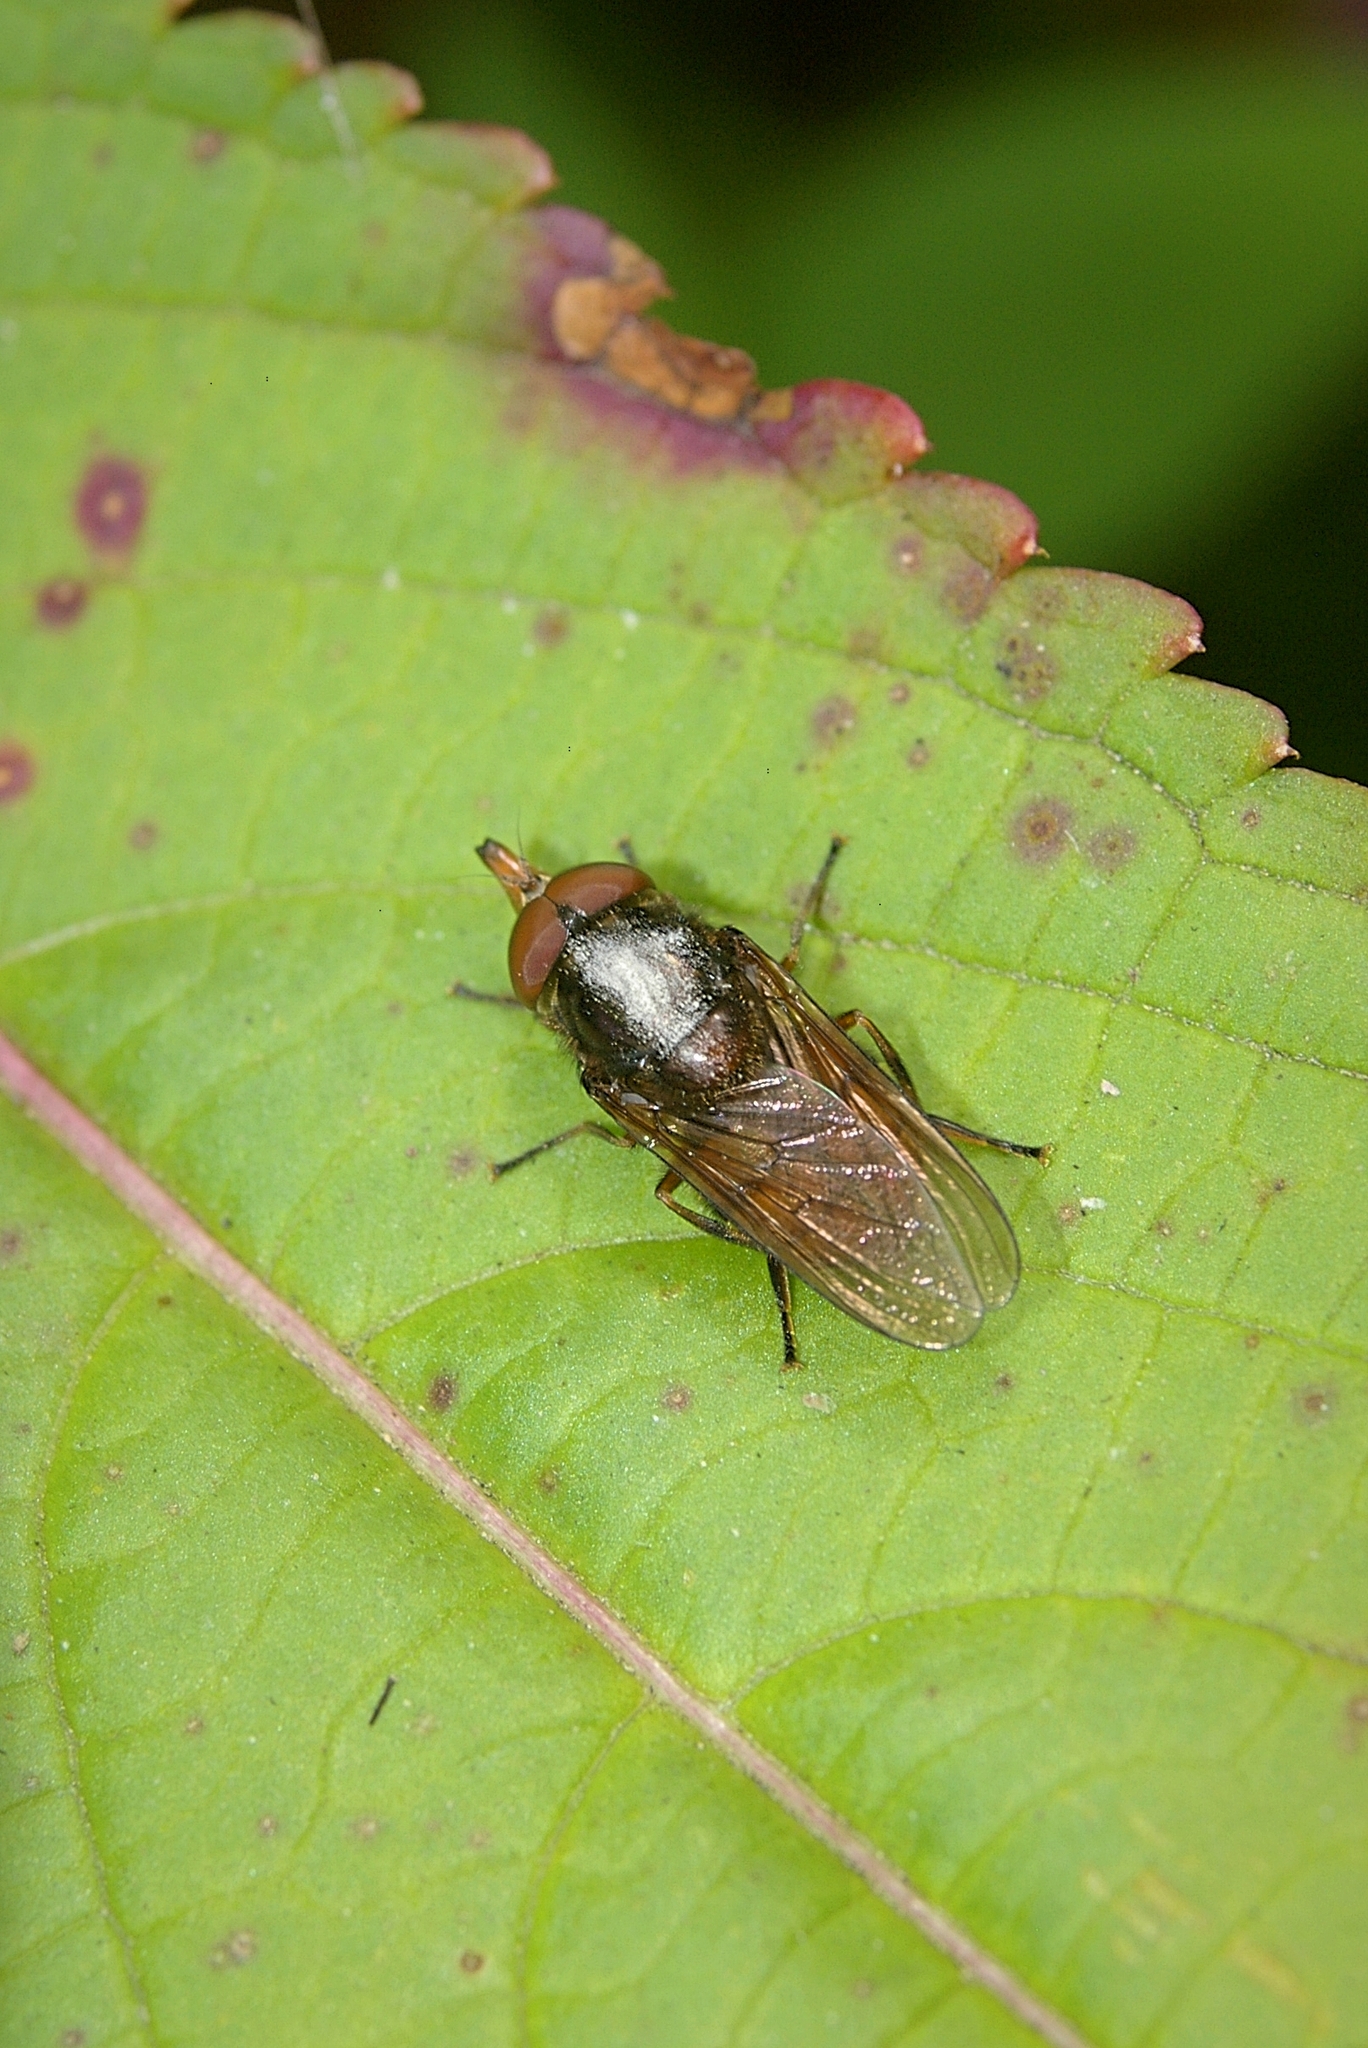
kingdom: Animalia
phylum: Arthropoda
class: Insecta
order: Diptera
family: Syrphidae
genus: Rhingia
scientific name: Rhingia campestris
